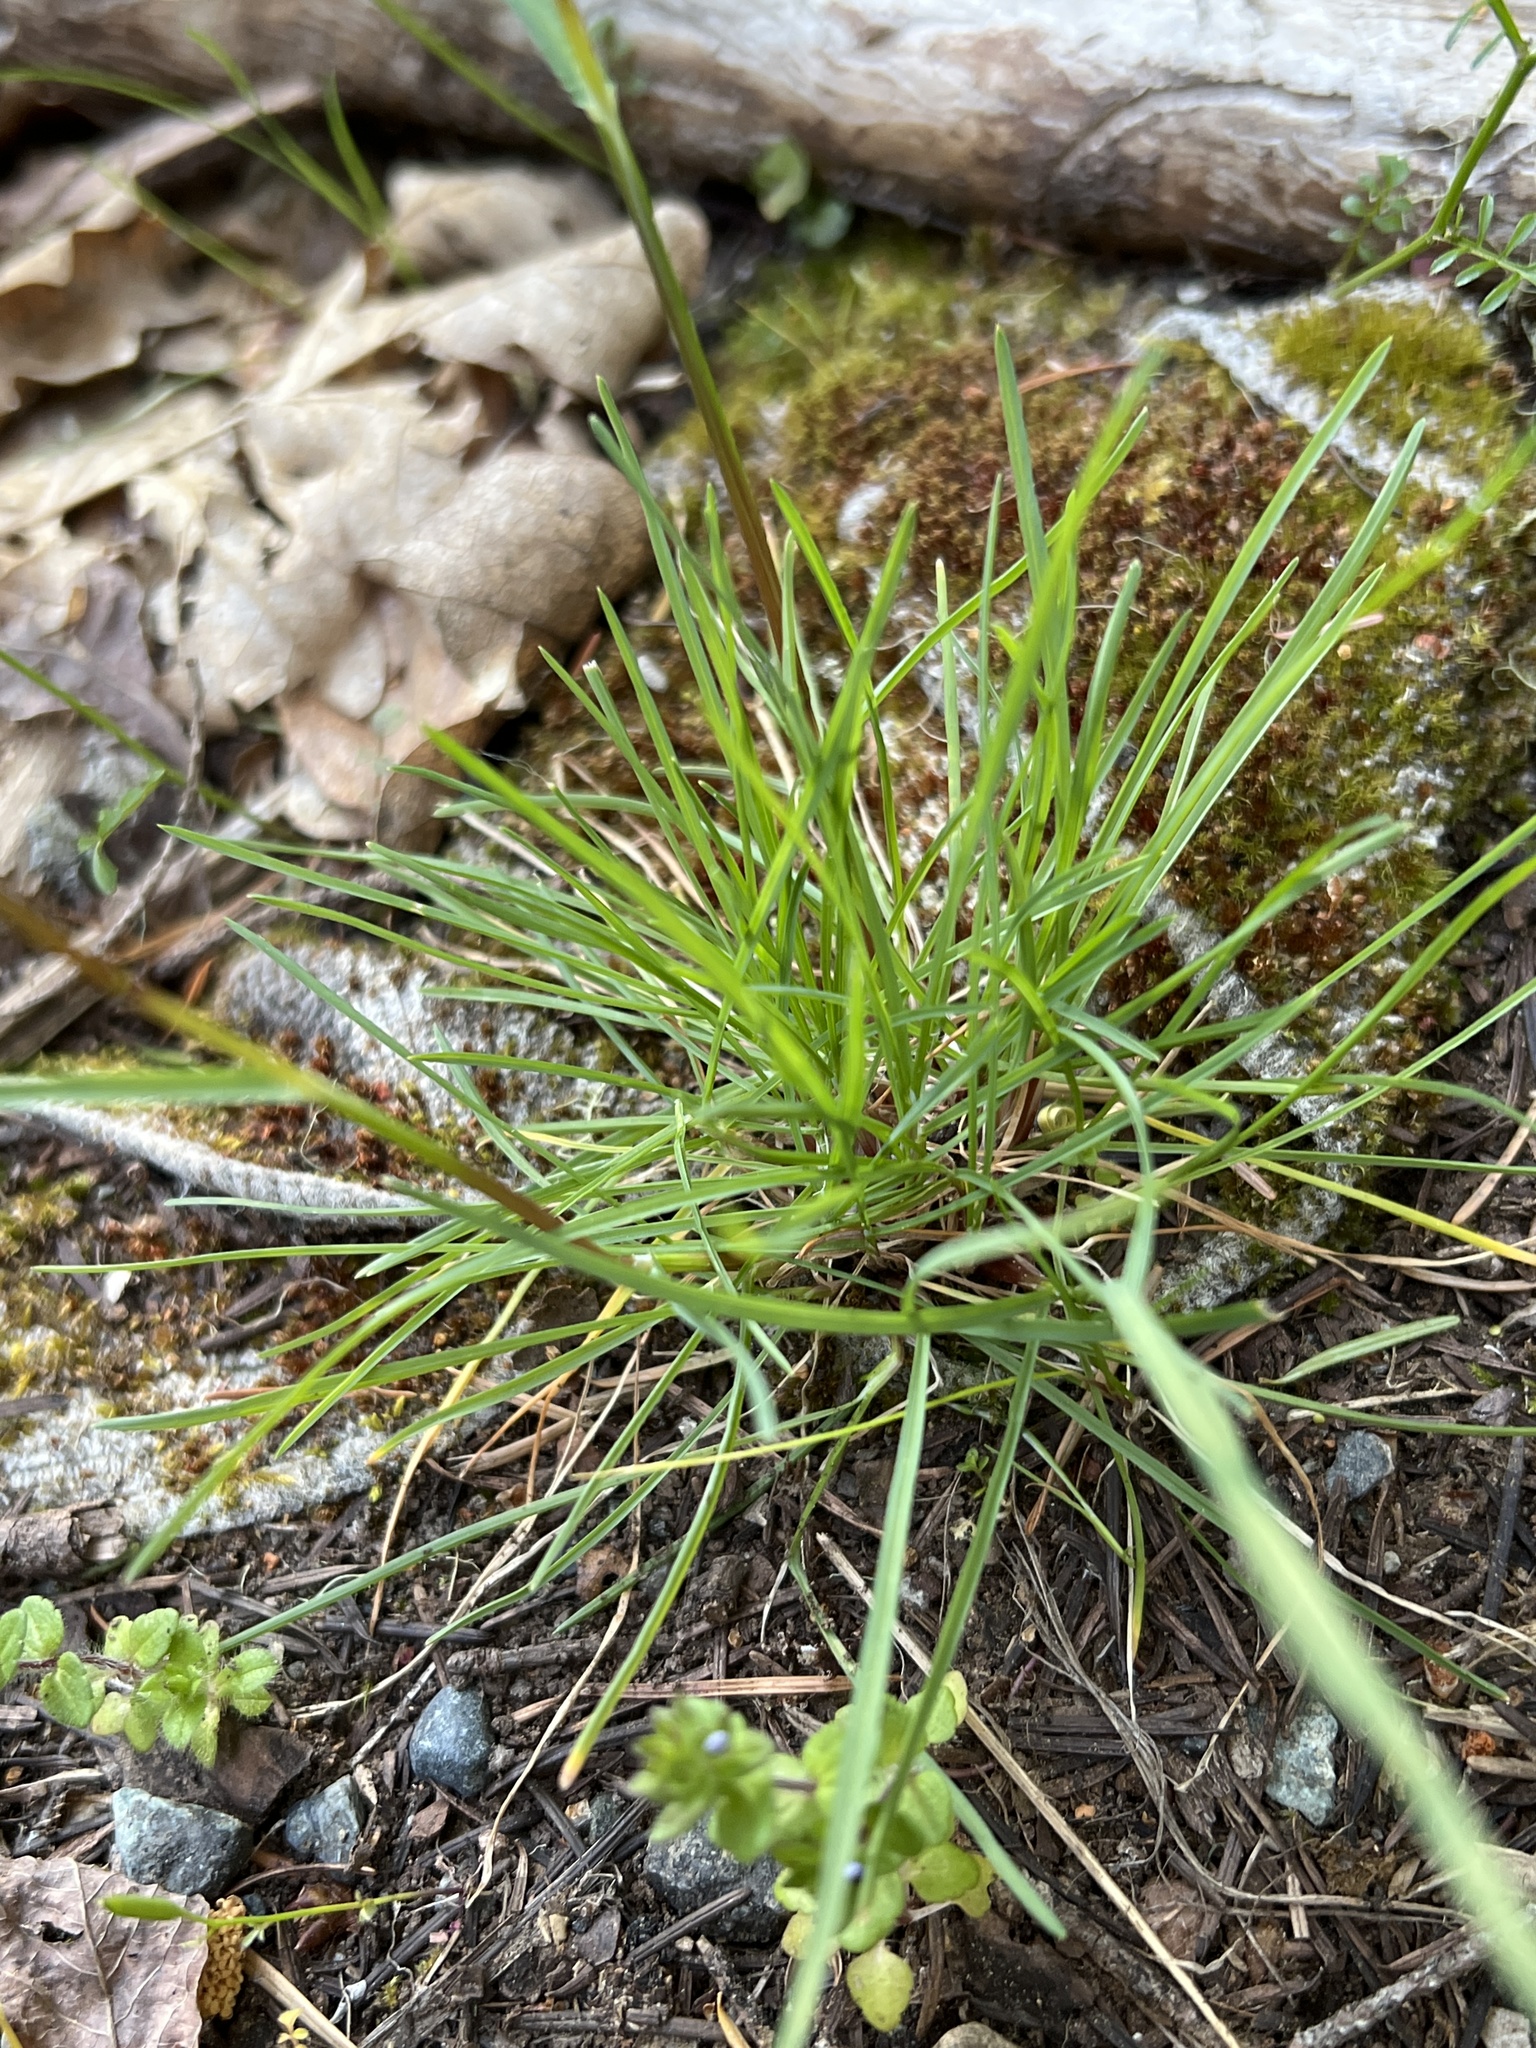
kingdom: Plantae
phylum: Tracheophyta
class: Liliopsida
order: Poales
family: Poaceae
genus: Poa
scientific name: Poa bulbosa
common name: Bulbous bluegrass
